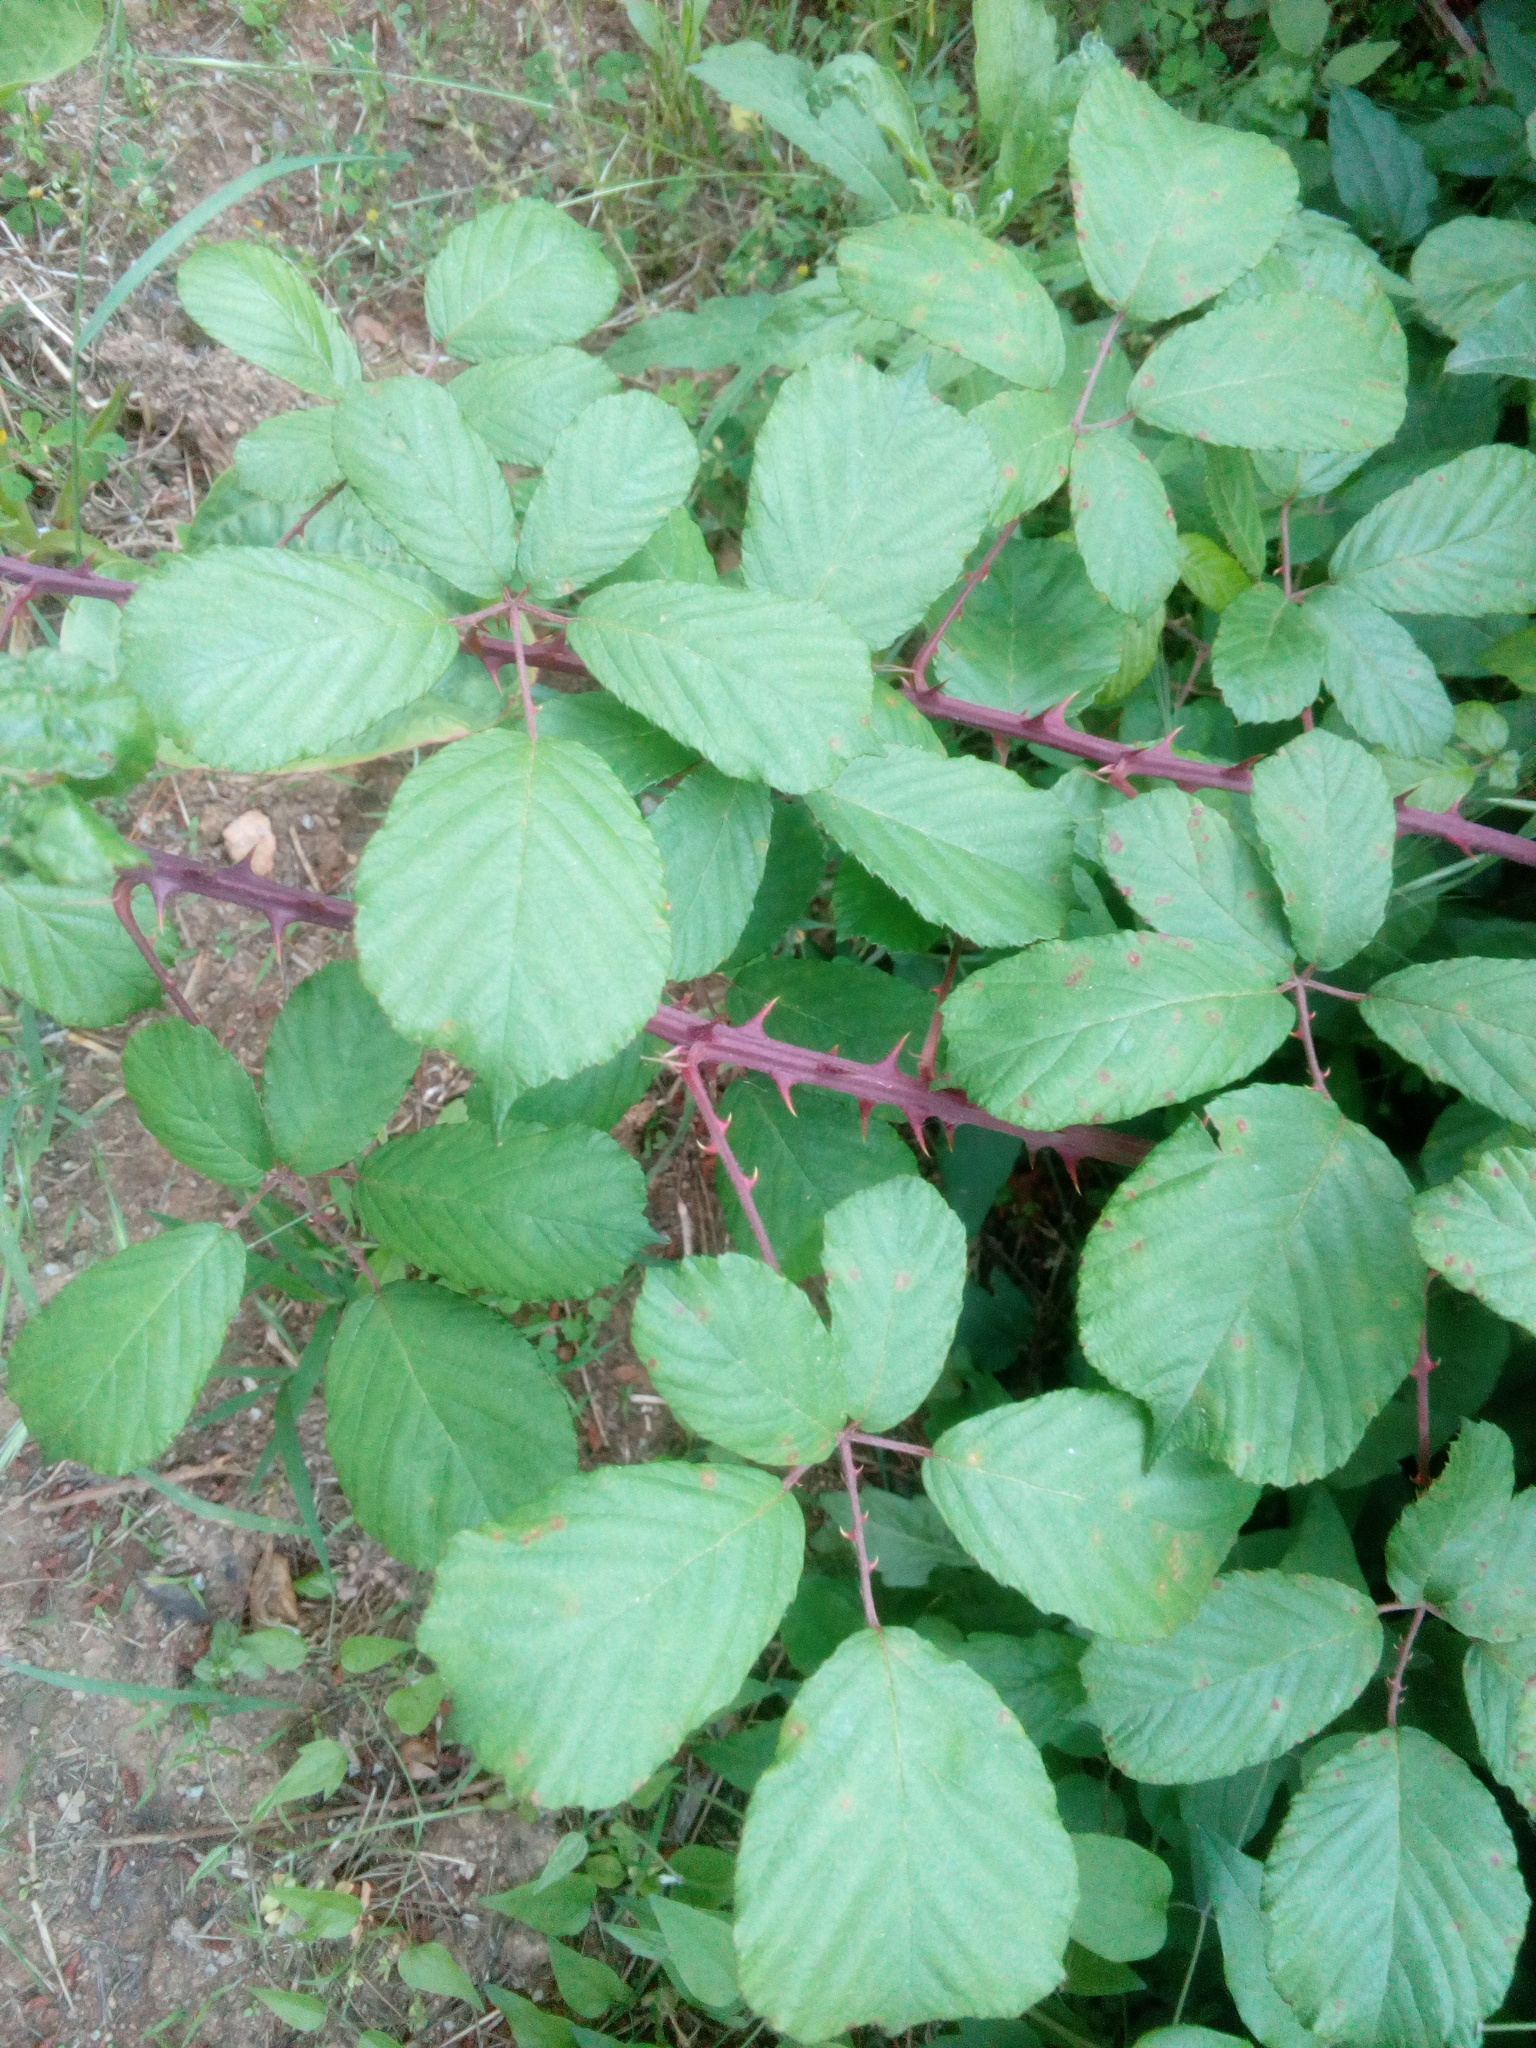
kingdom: Plantae
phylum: Tracheophyta
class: Magnoliopsida
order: Rosales
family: Rosaceae
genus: Rubus
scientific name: Rubus ulmifolius
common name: Elmleaf blackberry
